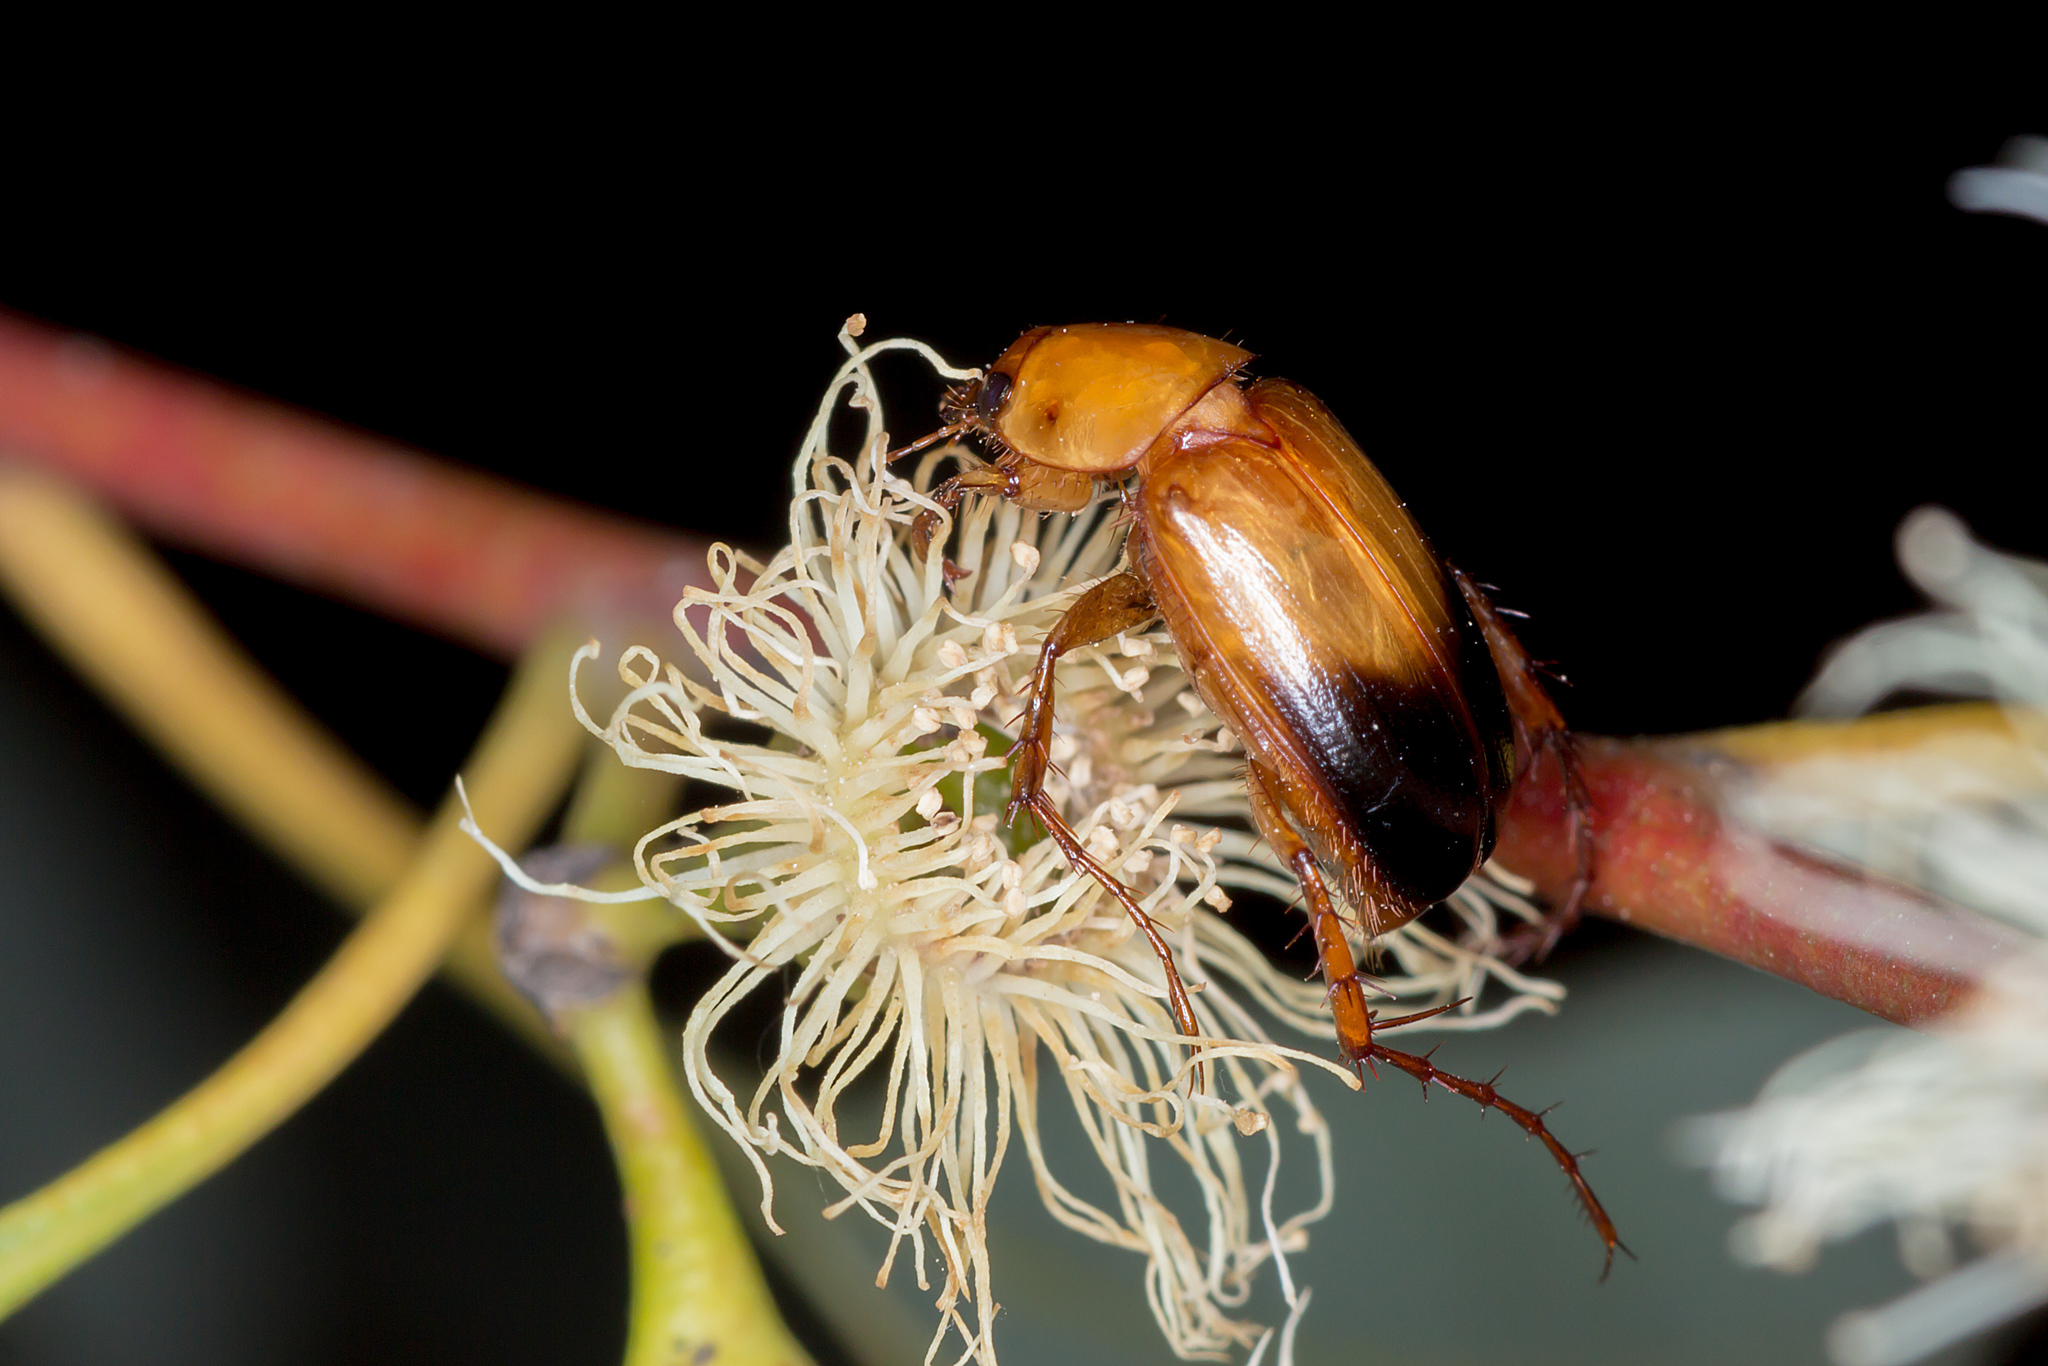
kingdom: Animalia
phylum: Arthropoda
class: Insecta
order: Coleoptera
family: Scarabaeidae
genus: Phyllotocus
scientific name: Phyllotocus macleayi
